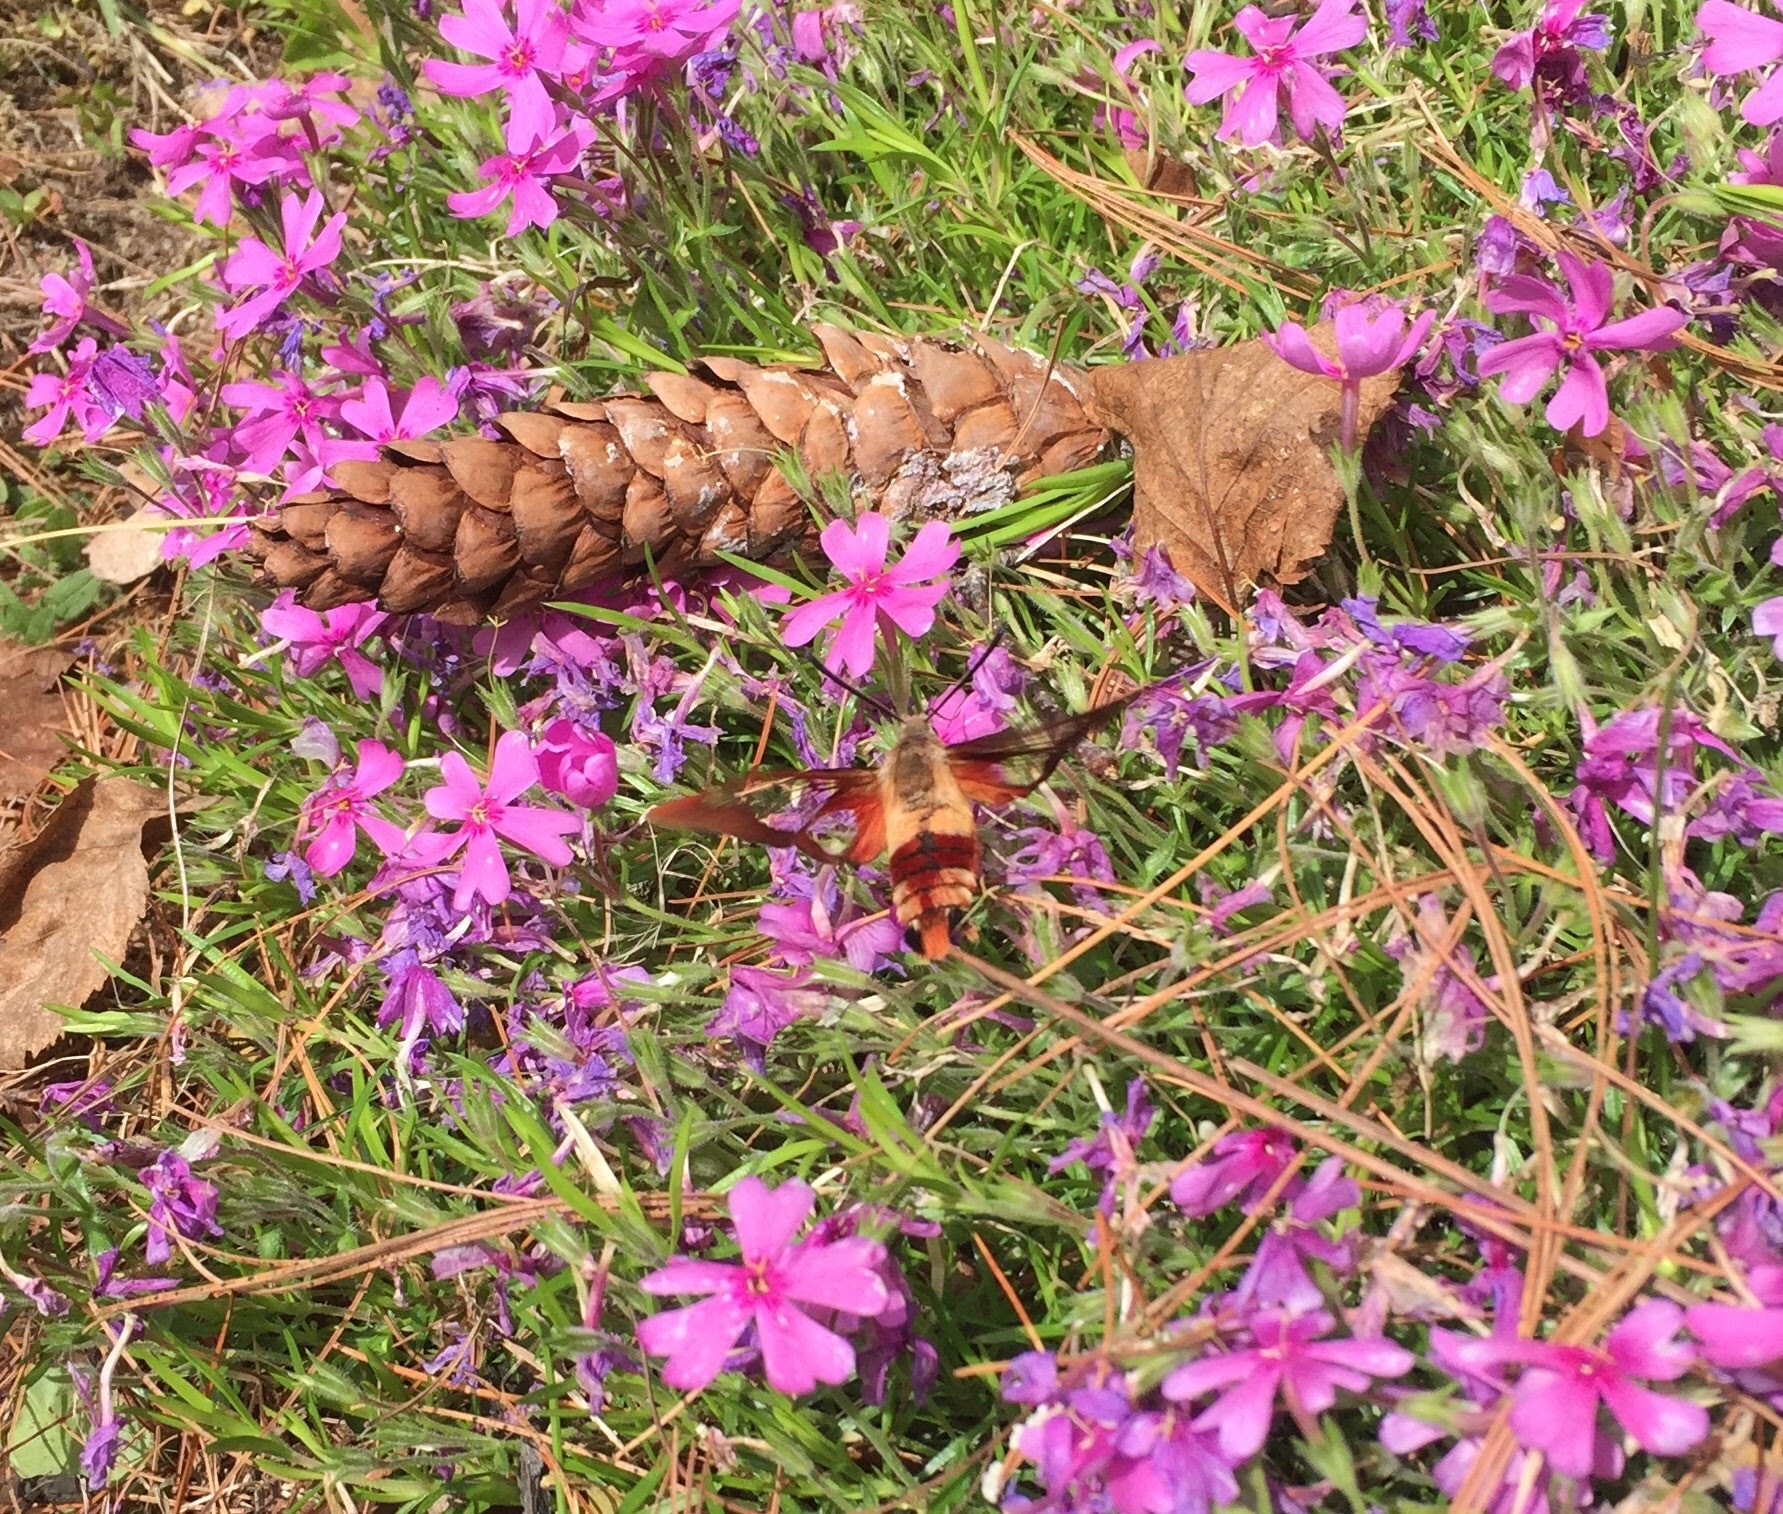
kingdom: Animalia
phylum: Arthropoda
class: Insecta
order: Lepidoptera
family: Sphingidae
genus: Hemaris
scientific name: Hemaris thysbe
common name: Common clear-wing
